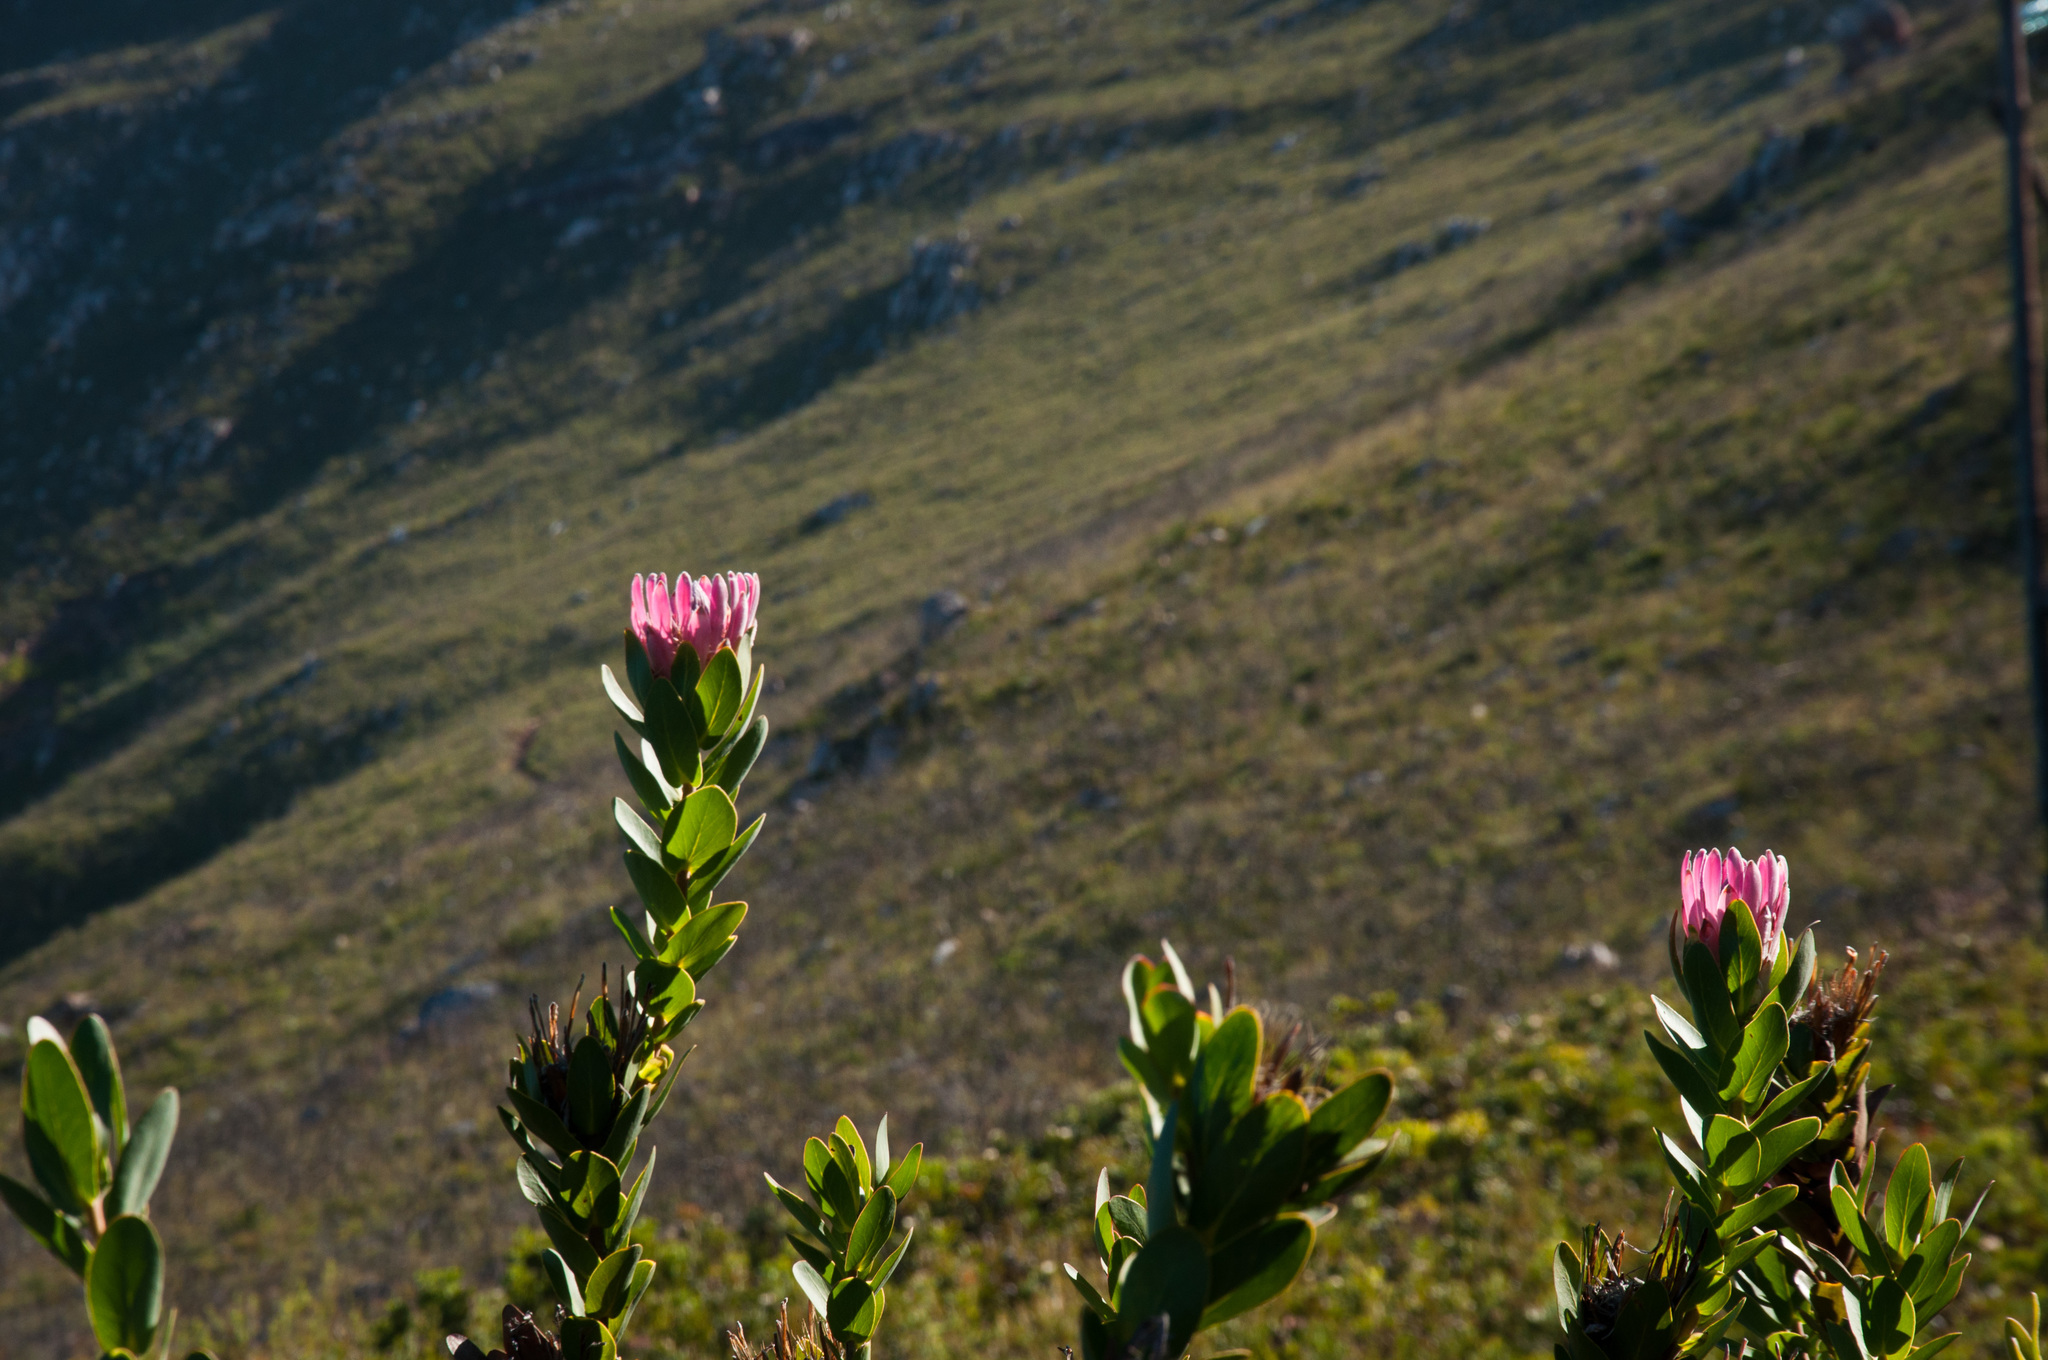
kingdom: Plantae
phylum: Tracheophyta
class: Magnoliopsida
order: Proteales
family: Proteaceae
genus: Protea
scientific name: Protea compacta
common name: Bot river protea
